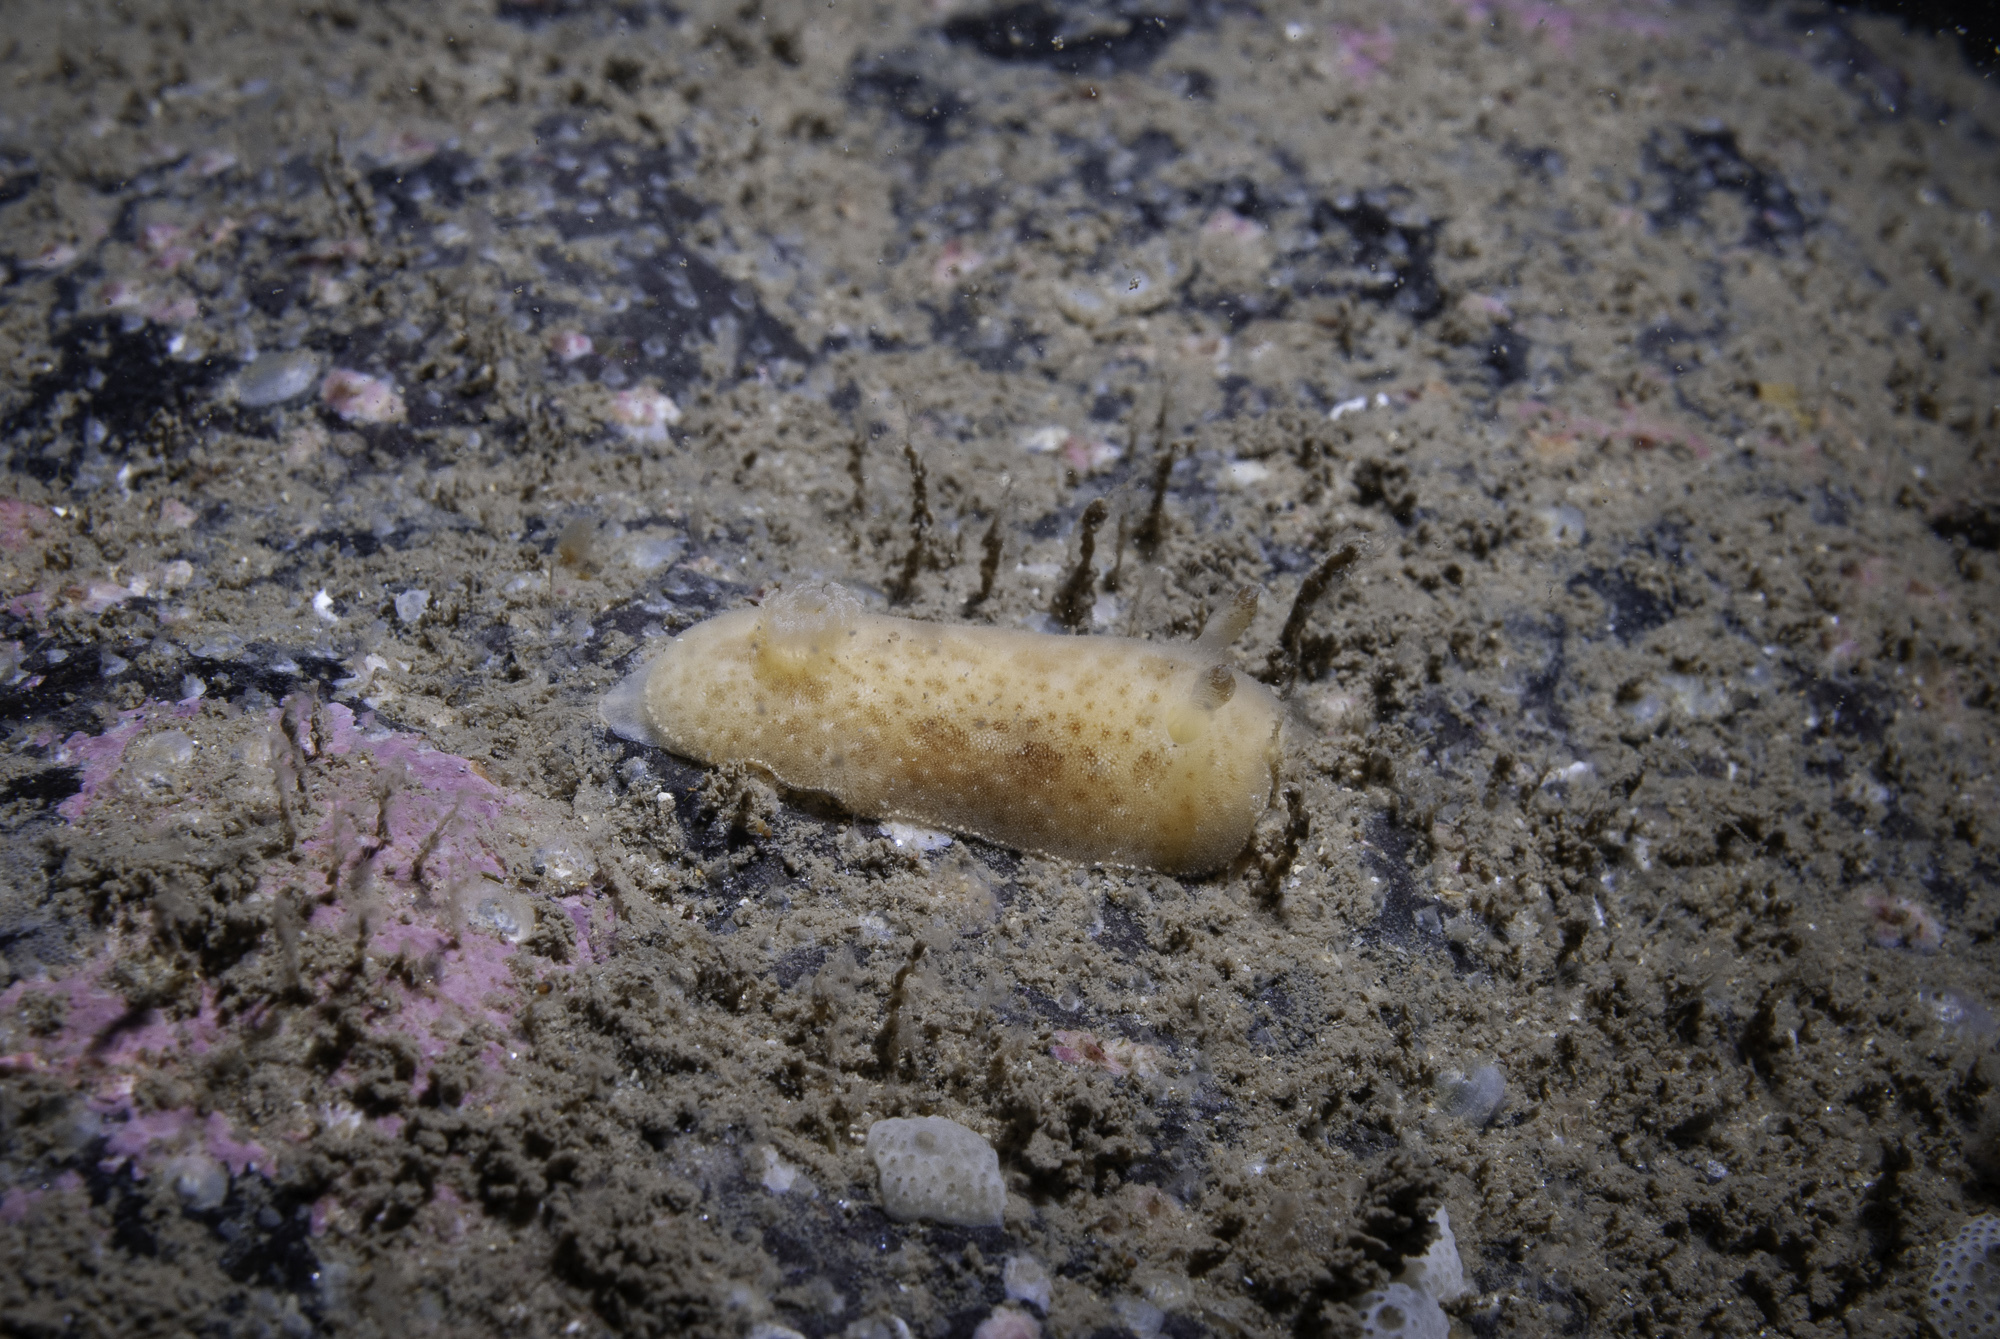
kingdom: Animalia
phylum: Mollusca
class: Gastropoda
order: Nudibranchia
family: Discodorididae
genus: Jorunna
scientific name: Jorunna tomentosa
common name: Grey sea slug
